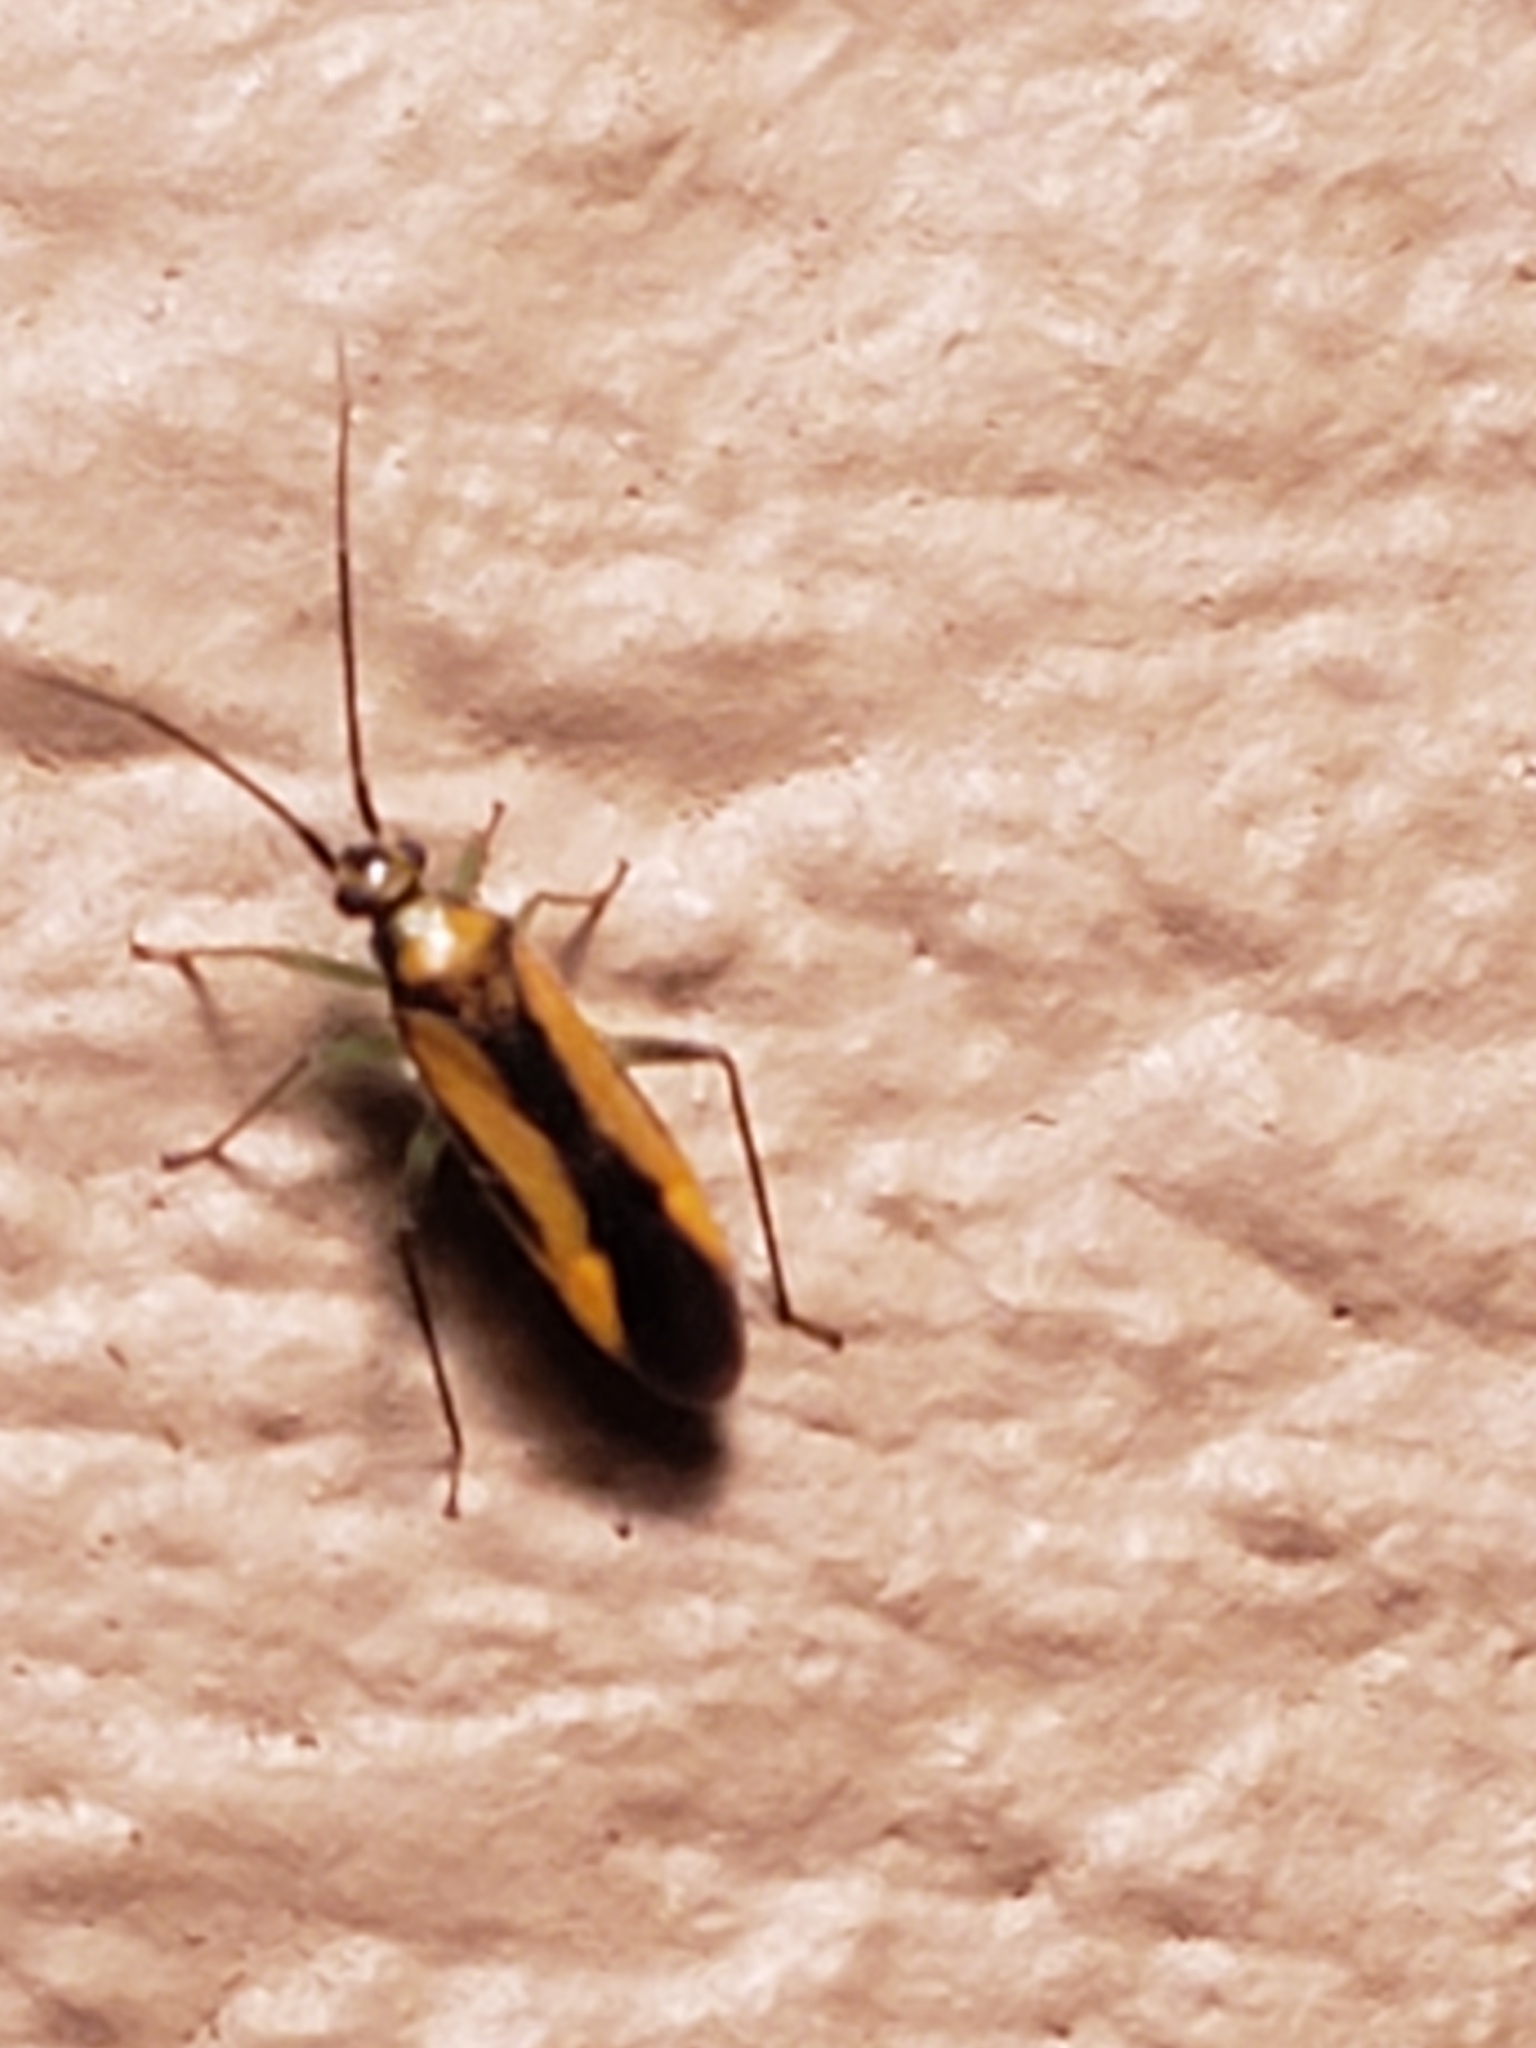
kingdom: Animalia
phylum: Arthropoda
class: Insecta
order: Hemiptera
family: Miridae
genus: Orthotylus
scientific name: Orthotylus submarginatus
